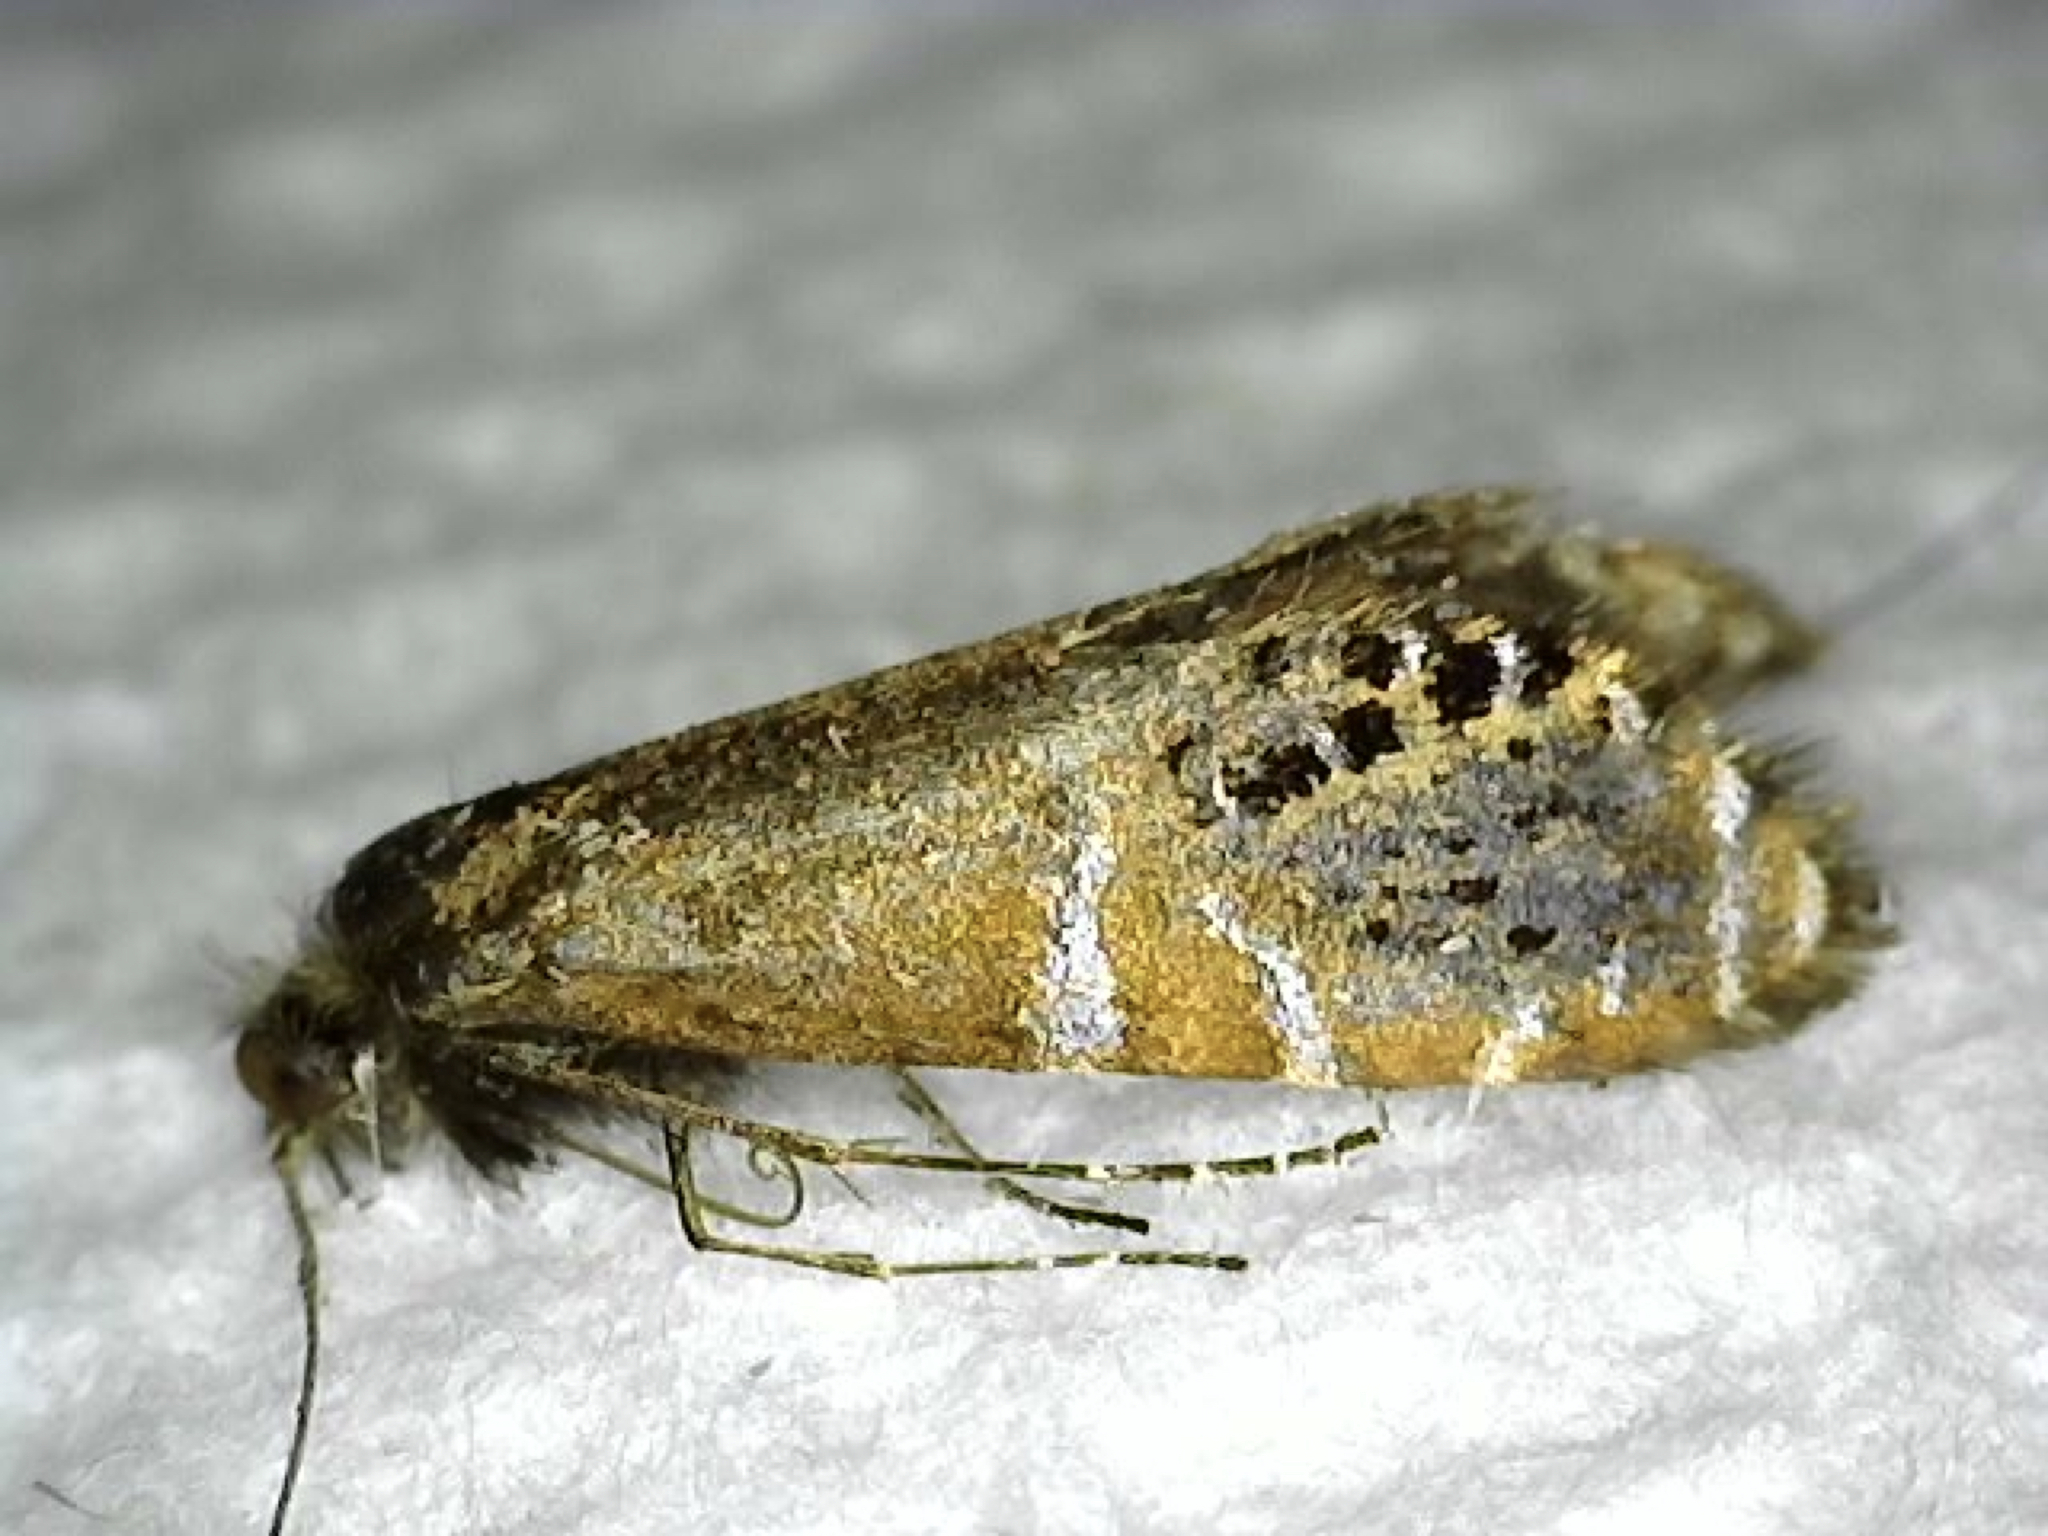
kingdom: Animalia
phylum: Arthropoda
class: Insecta
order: Lepidoptera
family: Adelidae
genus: Adela
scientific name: Adela ridingsella
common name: Ridings' fairy moth
